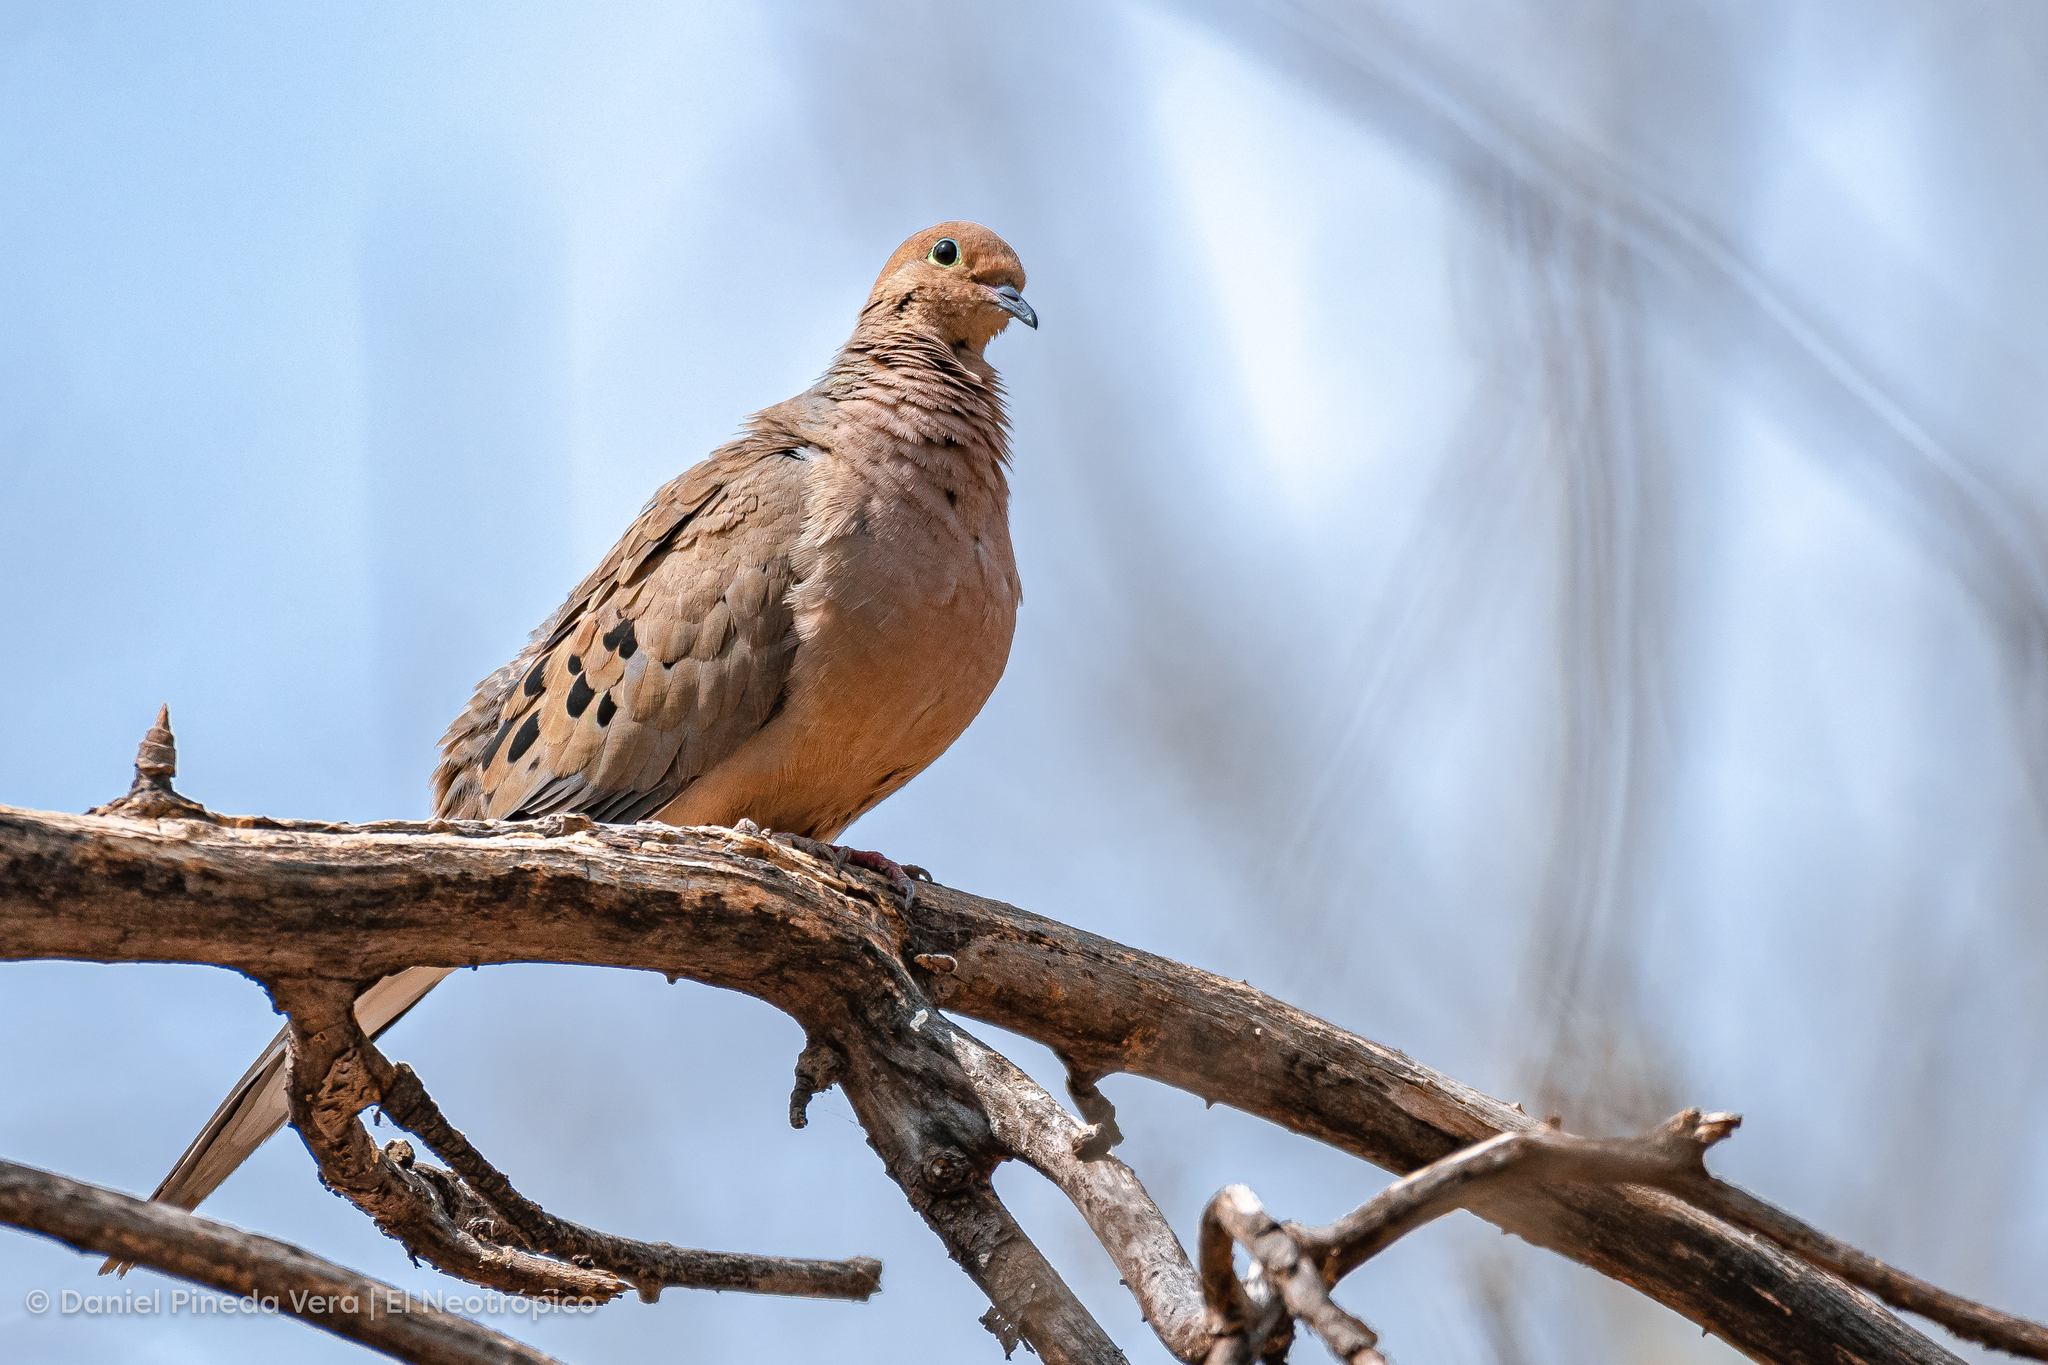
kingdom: Animalia
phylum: Chordata
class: Aves
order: Columbiformes
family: Columbidae
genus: Zenaida
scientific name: Zenaida macroura
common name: Mourning dove
